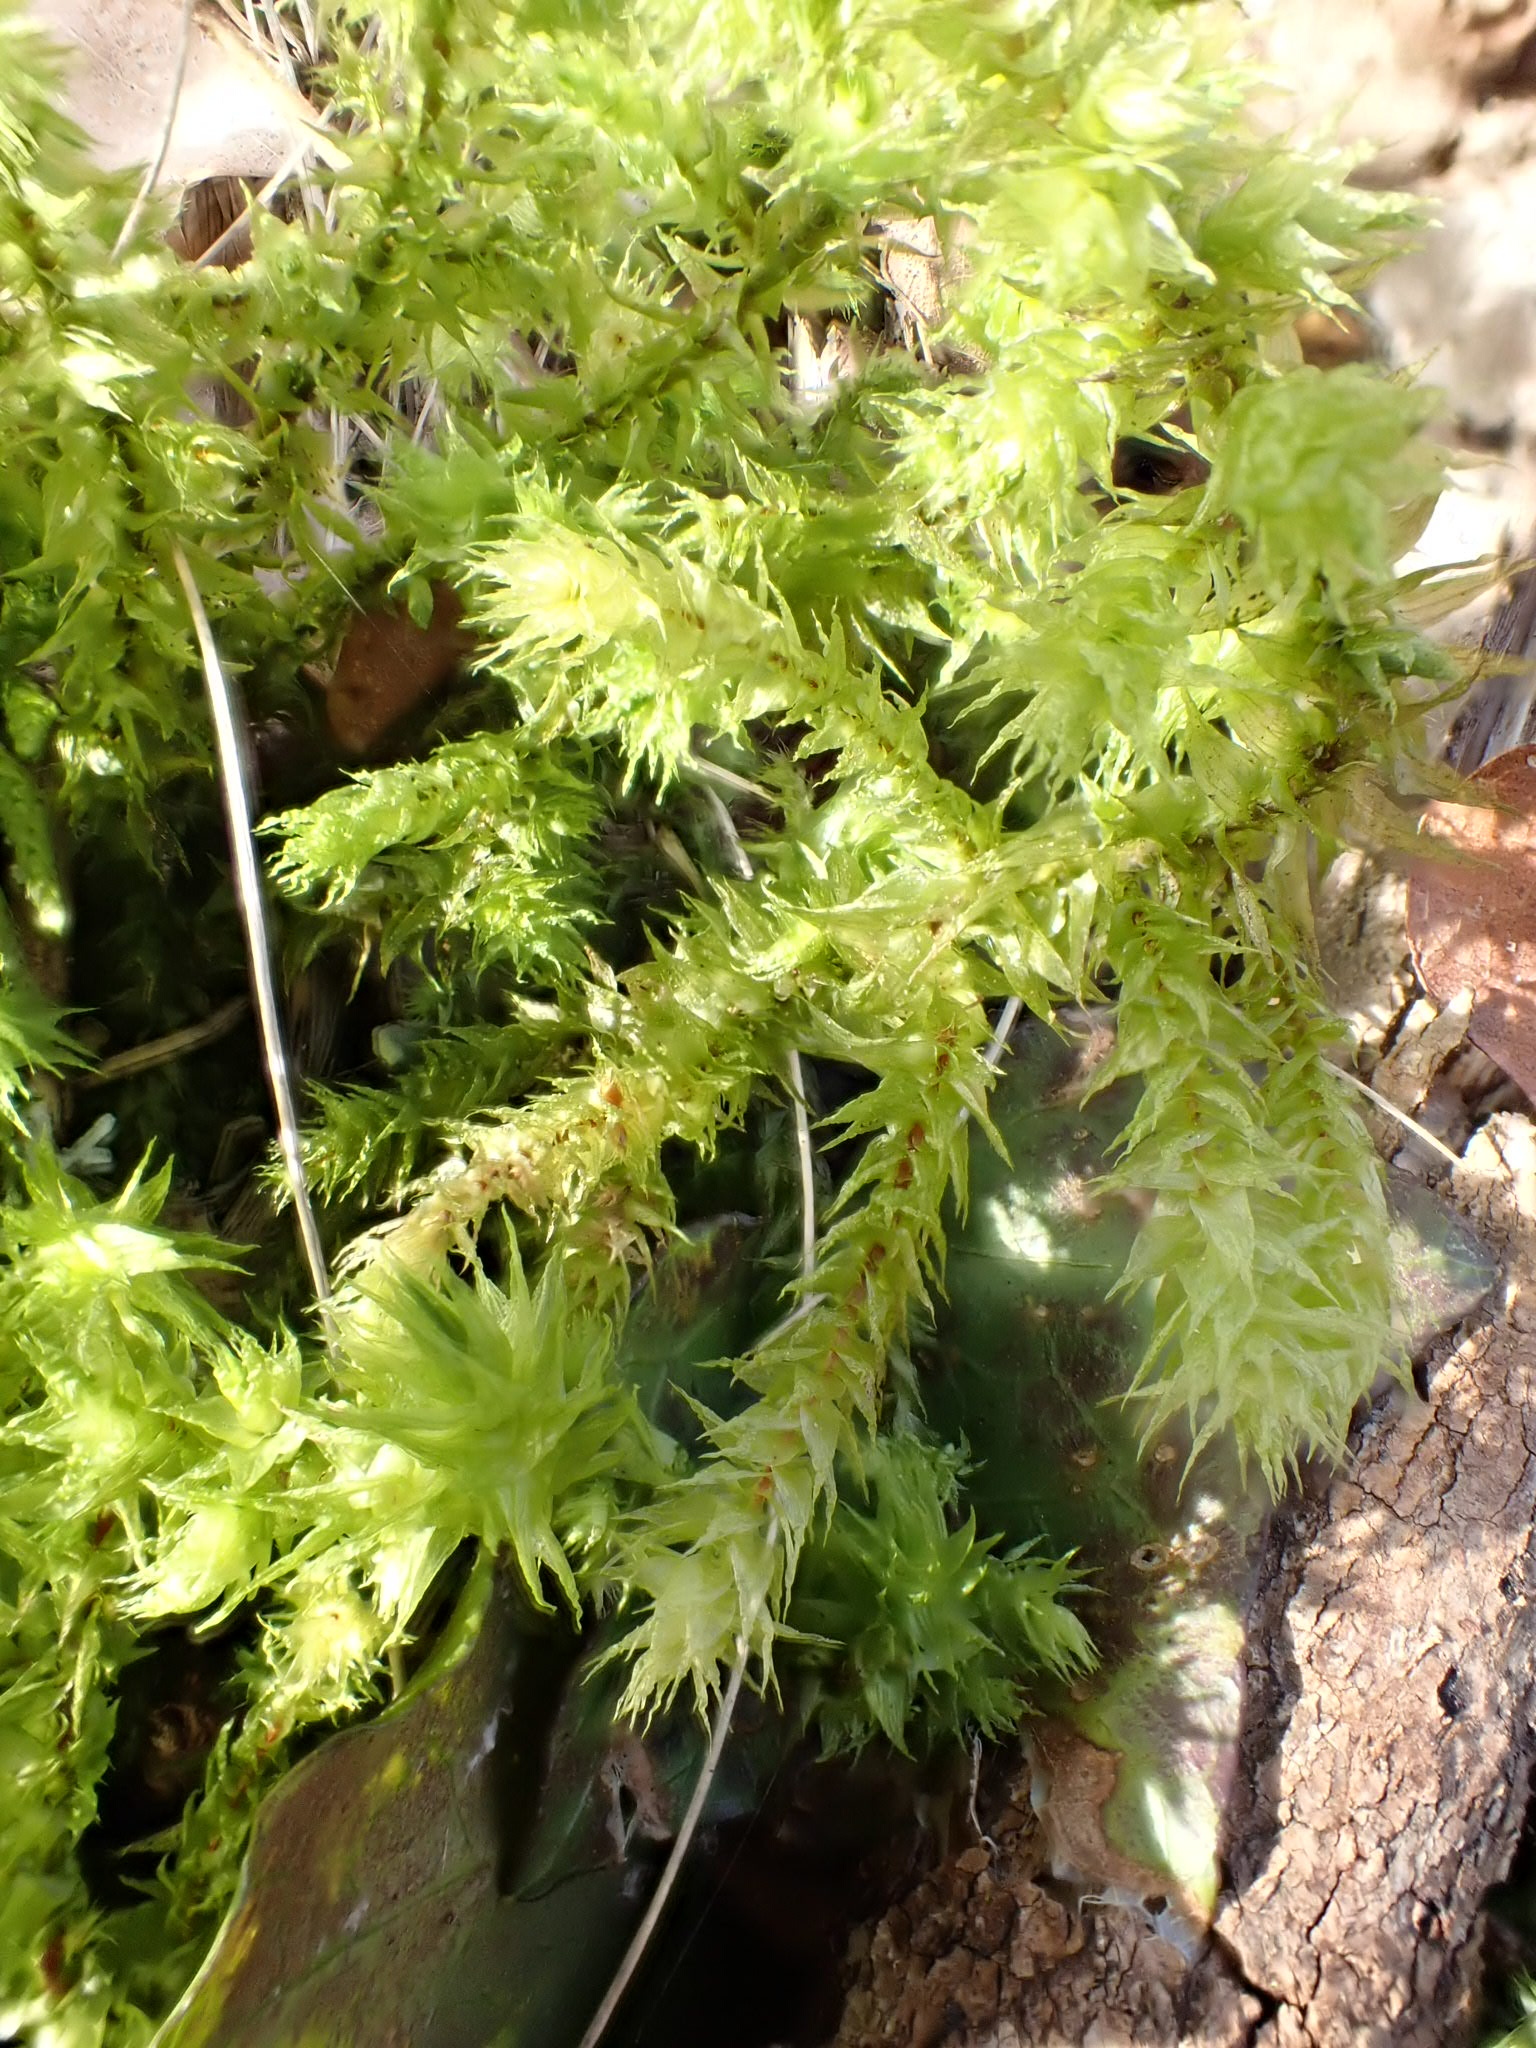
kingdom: Plantae
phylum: Bryophyta
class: Bryopsida
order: Hypnales
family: Hylocomiaceae
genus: Hylocomiadelphus
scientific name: Hylocomiadelphus triquetrus
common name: Rough goose neck moss
